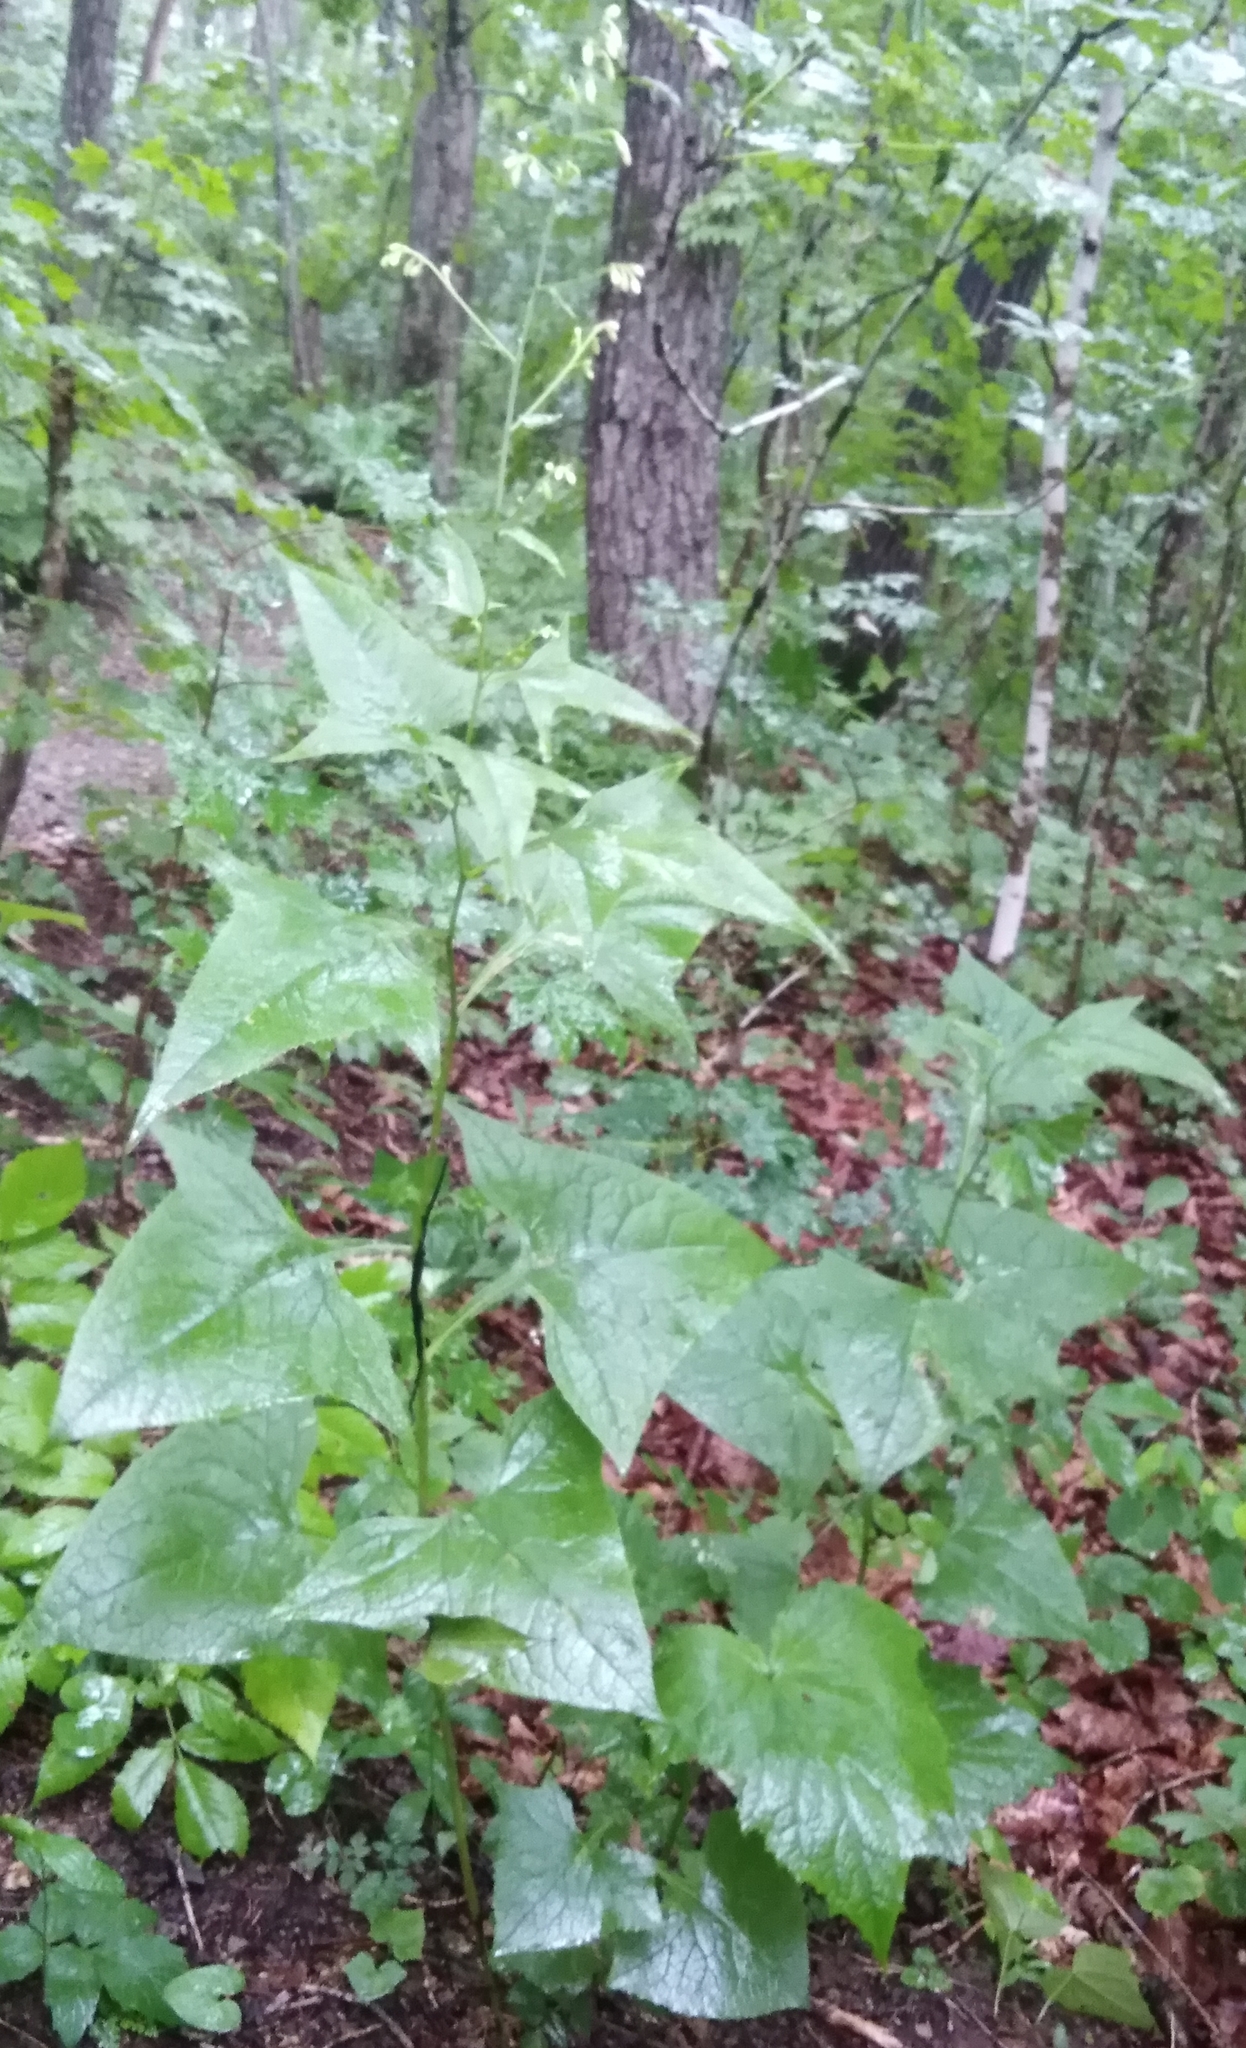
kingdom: Plantae
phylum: Tracheophyta
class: Magnoliopsida
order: Asterales
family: Asteraceae
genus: Parasenecio
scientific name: Parasenecio hastatus
